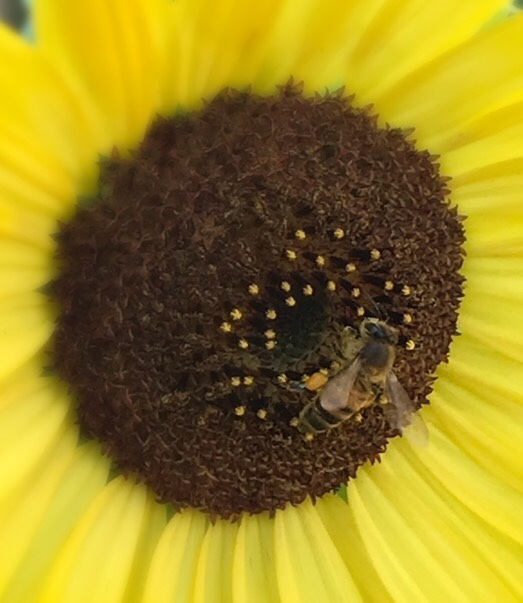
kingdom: Animalia
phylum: Arthropoda
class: Insecta
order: Hymenoptera
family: Apidae
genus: Apis
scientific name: Apis mellifera
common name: Honey bee
